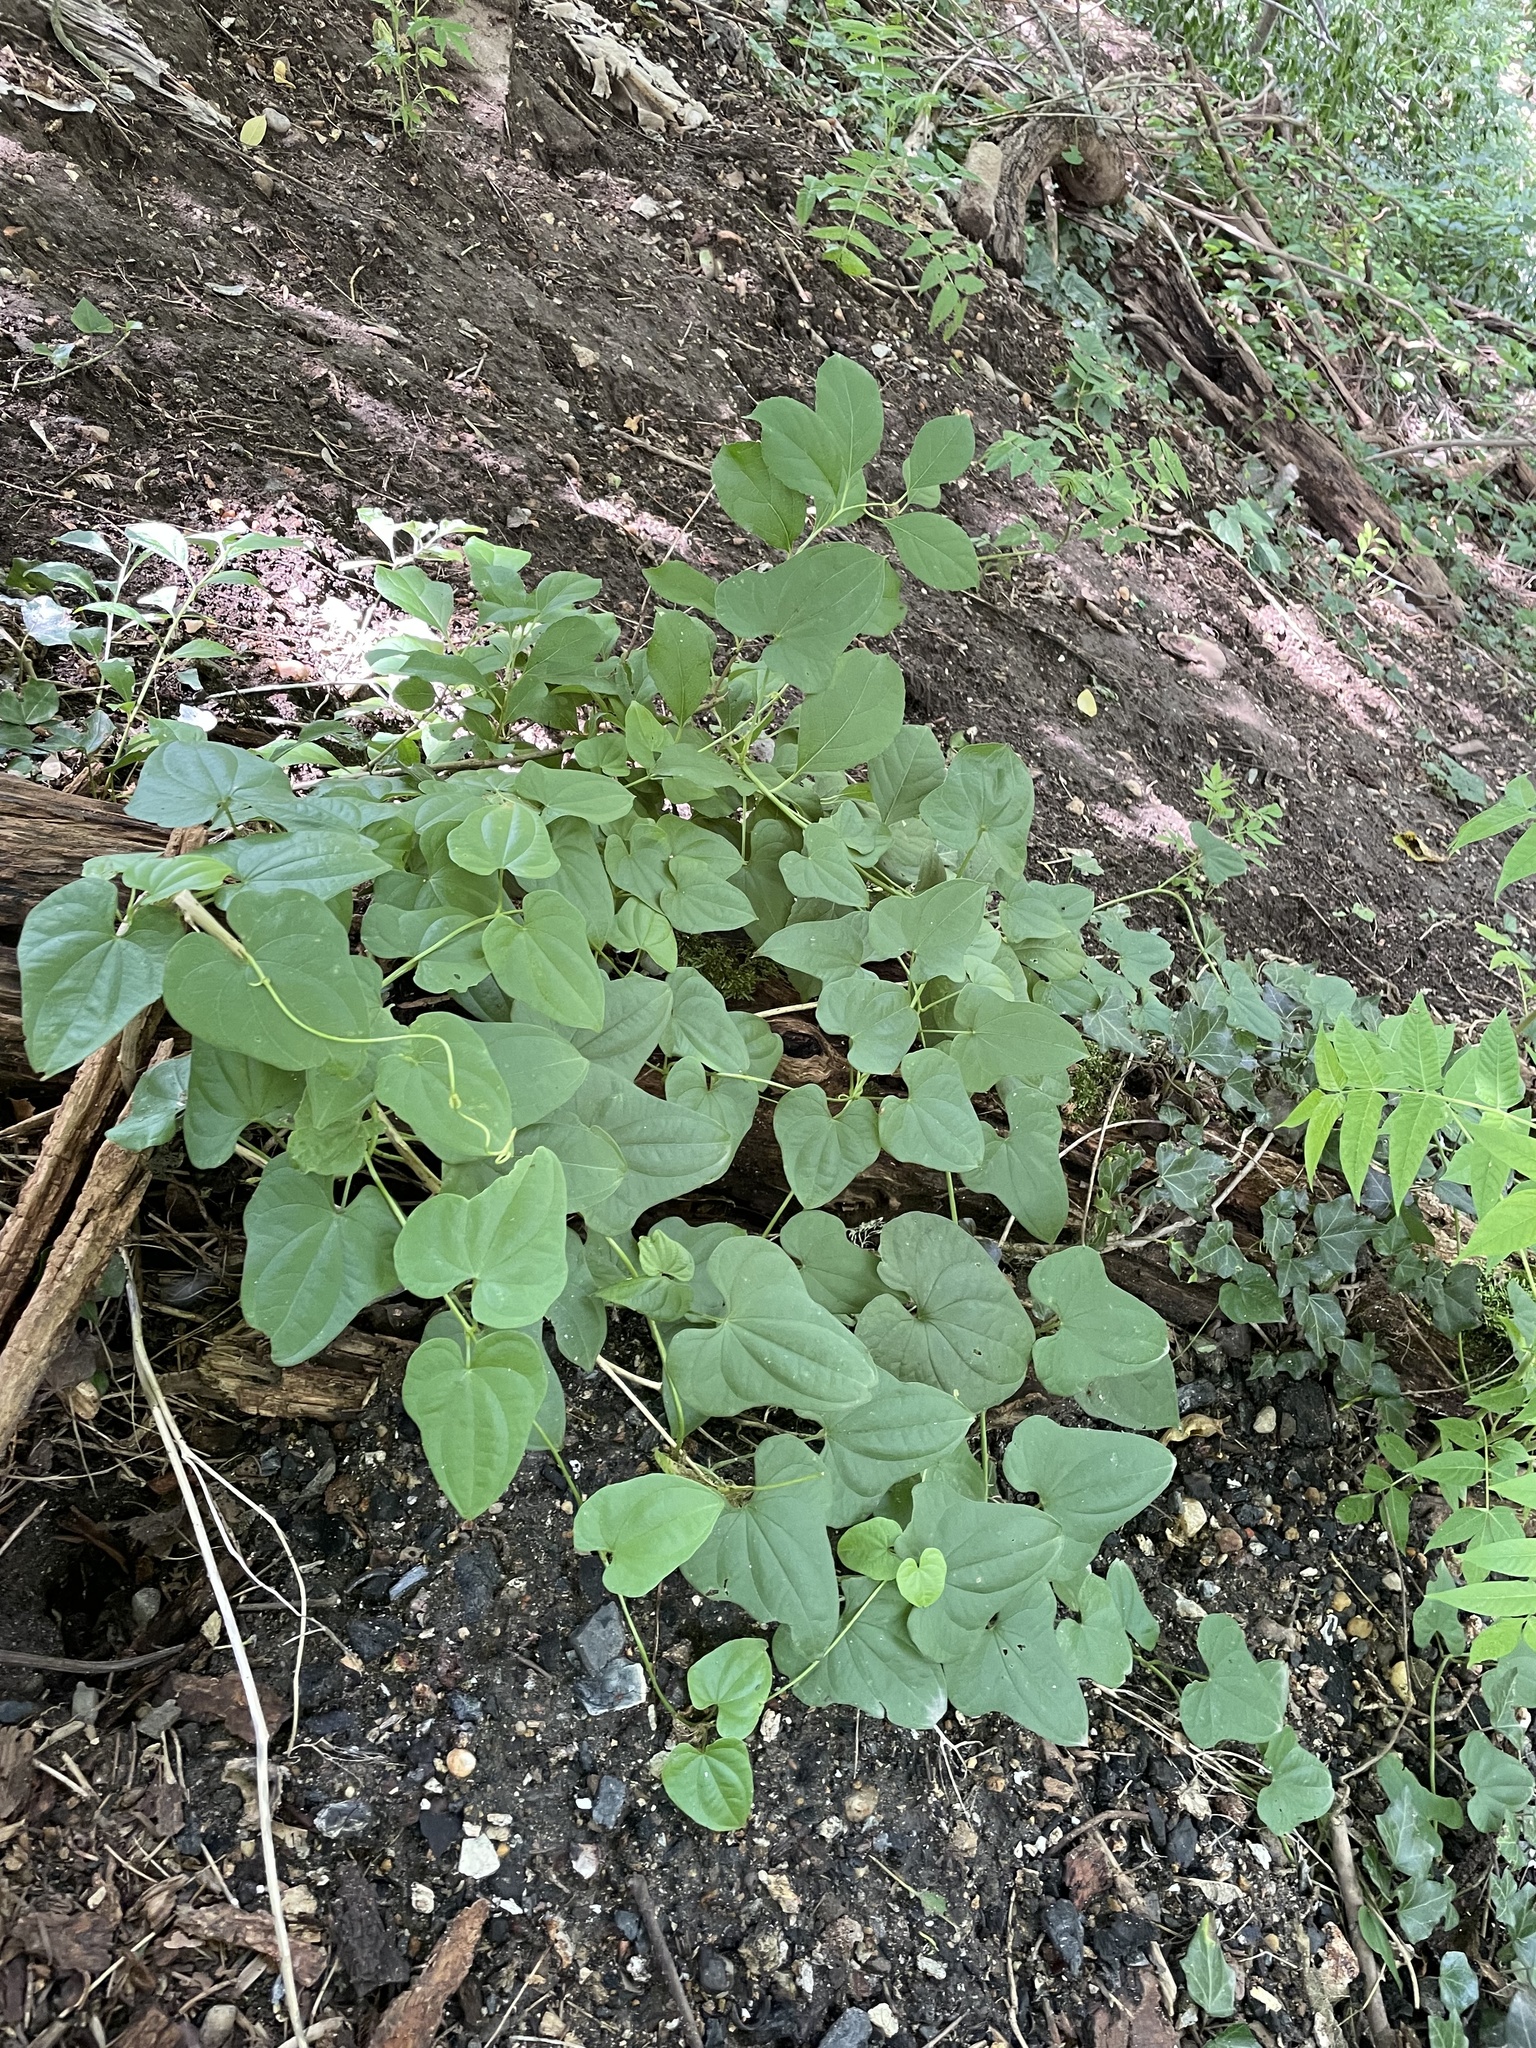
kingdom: Plantae
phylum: Tracheophyta
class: Liliopsida
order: Dioscoreales
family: Dioscoreaceae
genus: Dioscorea
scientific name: Dioscorea polystachya
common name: Chinese yam
